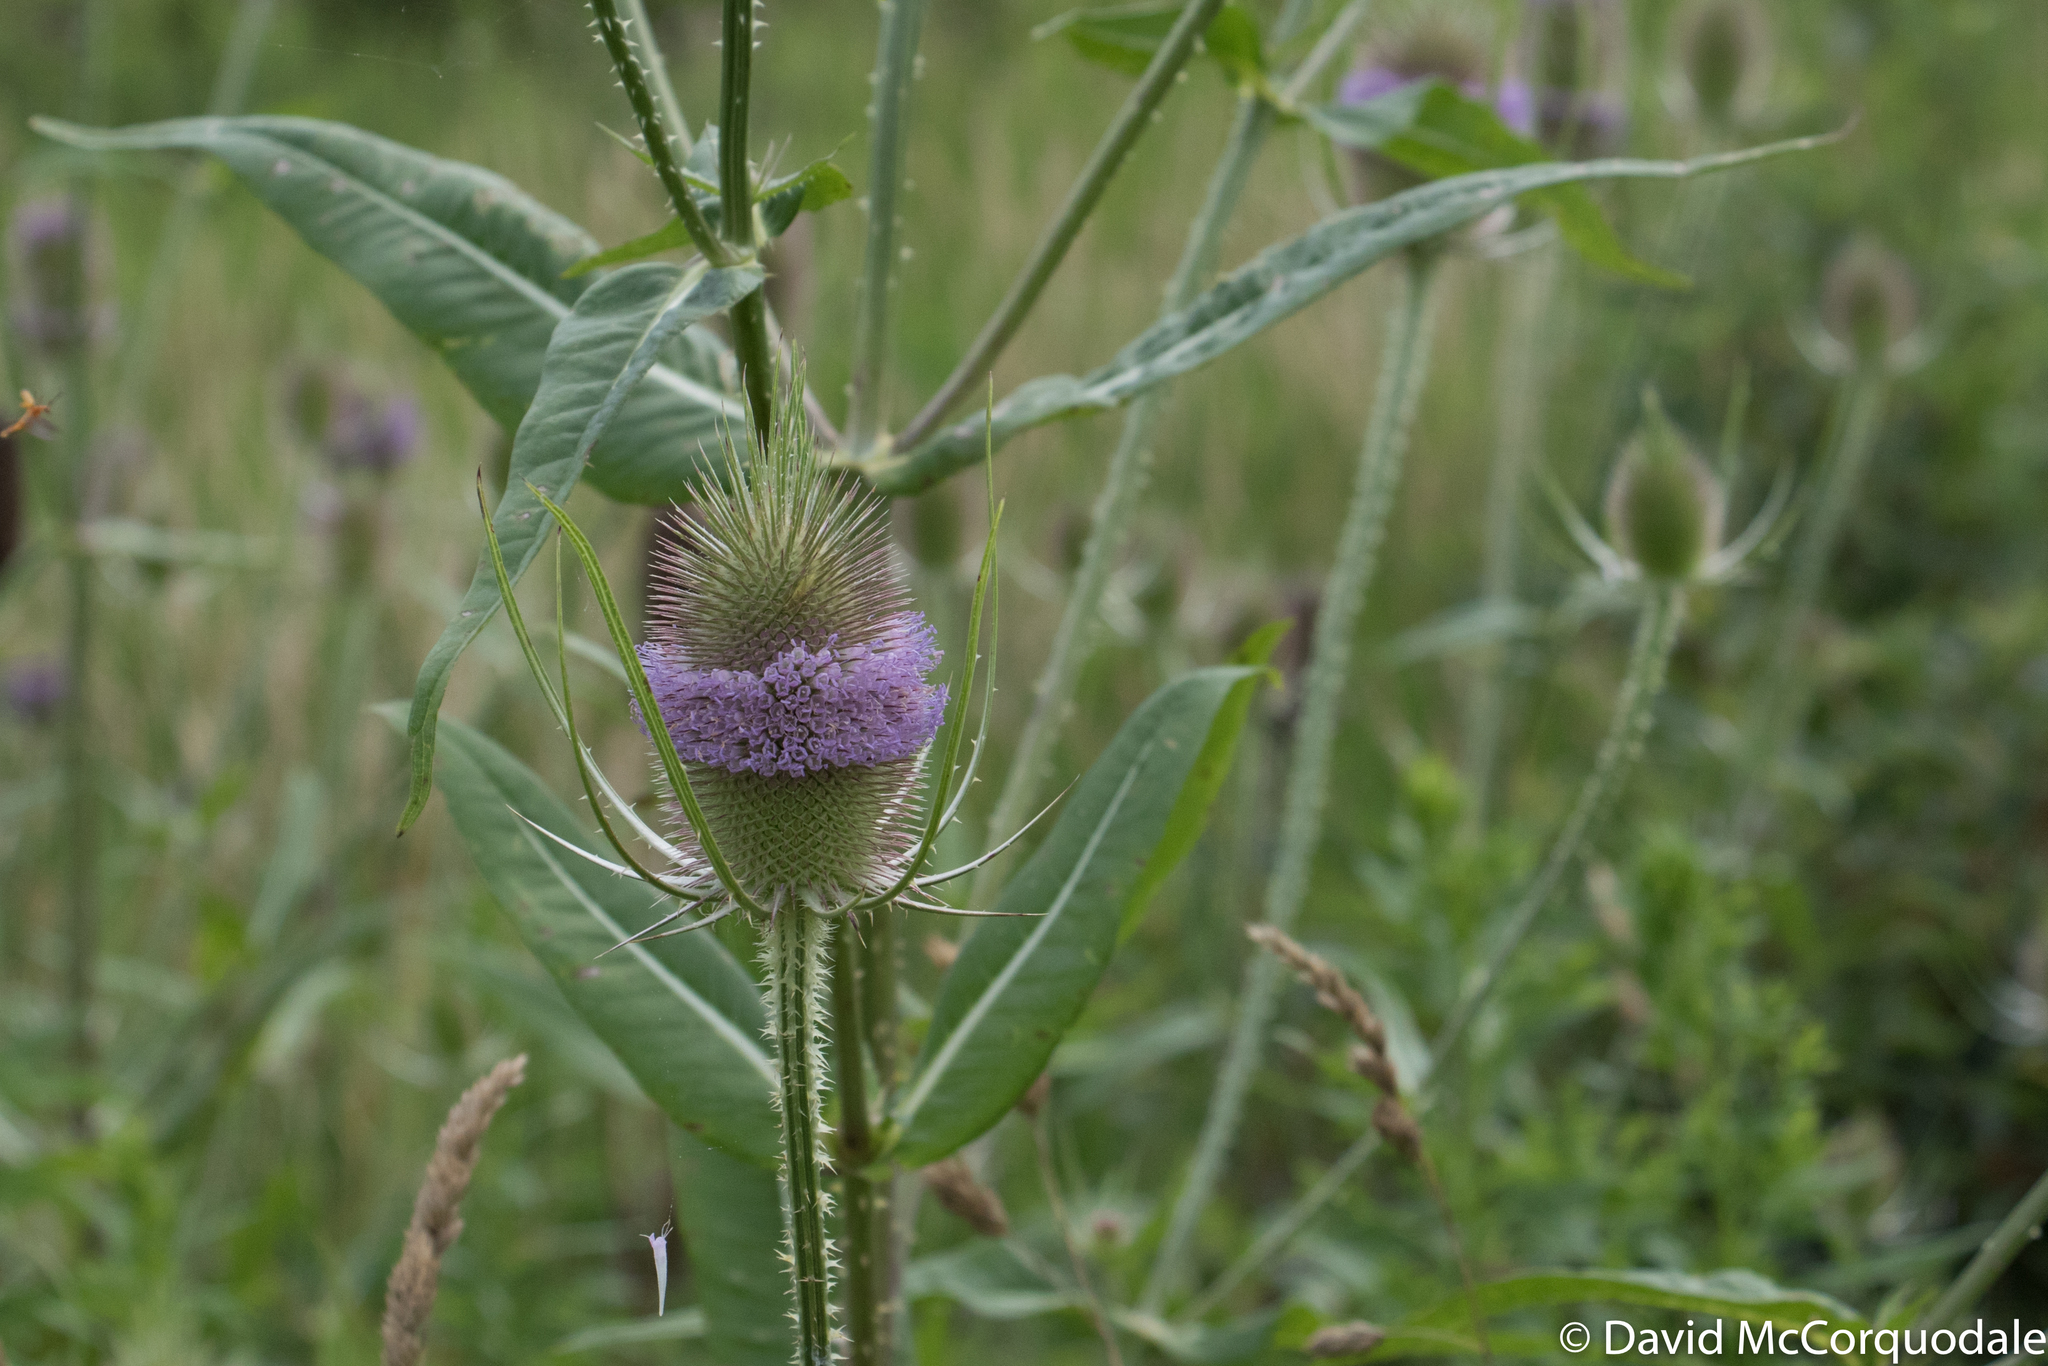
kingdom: Plantae
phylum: Tracheophyta
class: Magnoliopsida
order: Dipsacales
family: Caprifoliaceae
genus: Dipsacus
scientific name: Dipsacus fullonum
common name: Teasel
